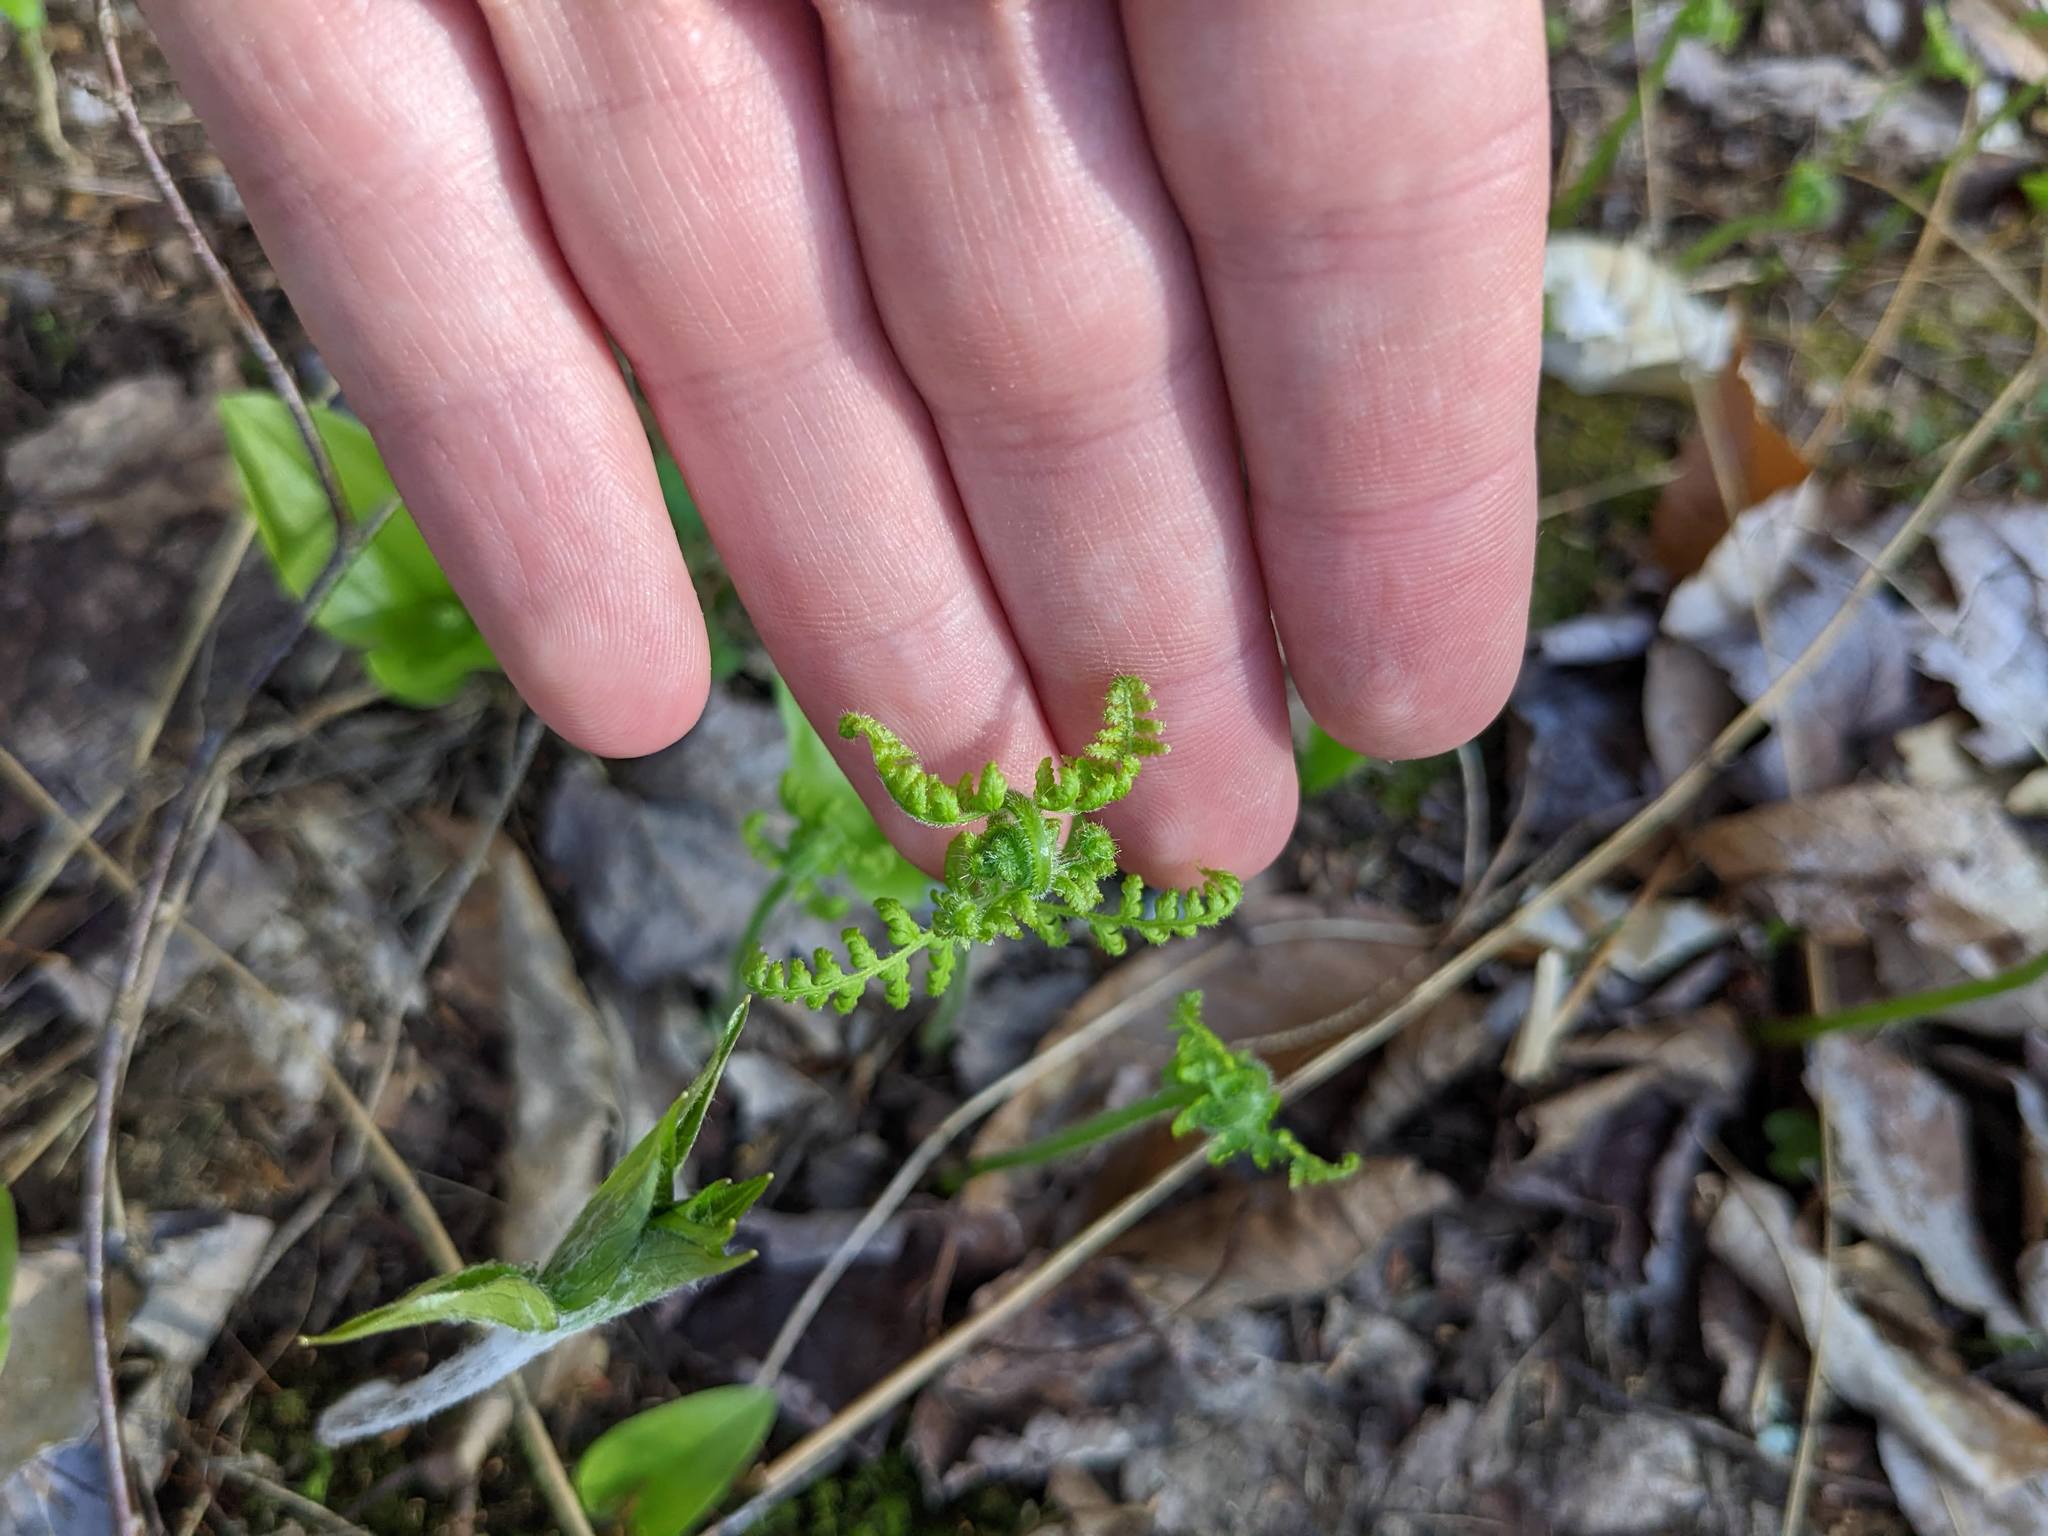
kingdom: Plantae
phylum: Tracheophyta
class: Polypodiopsida
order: Polypodiales
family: Dennstaedtiaceae
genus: Sitobolium
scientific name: Sitobolium punctilobum
